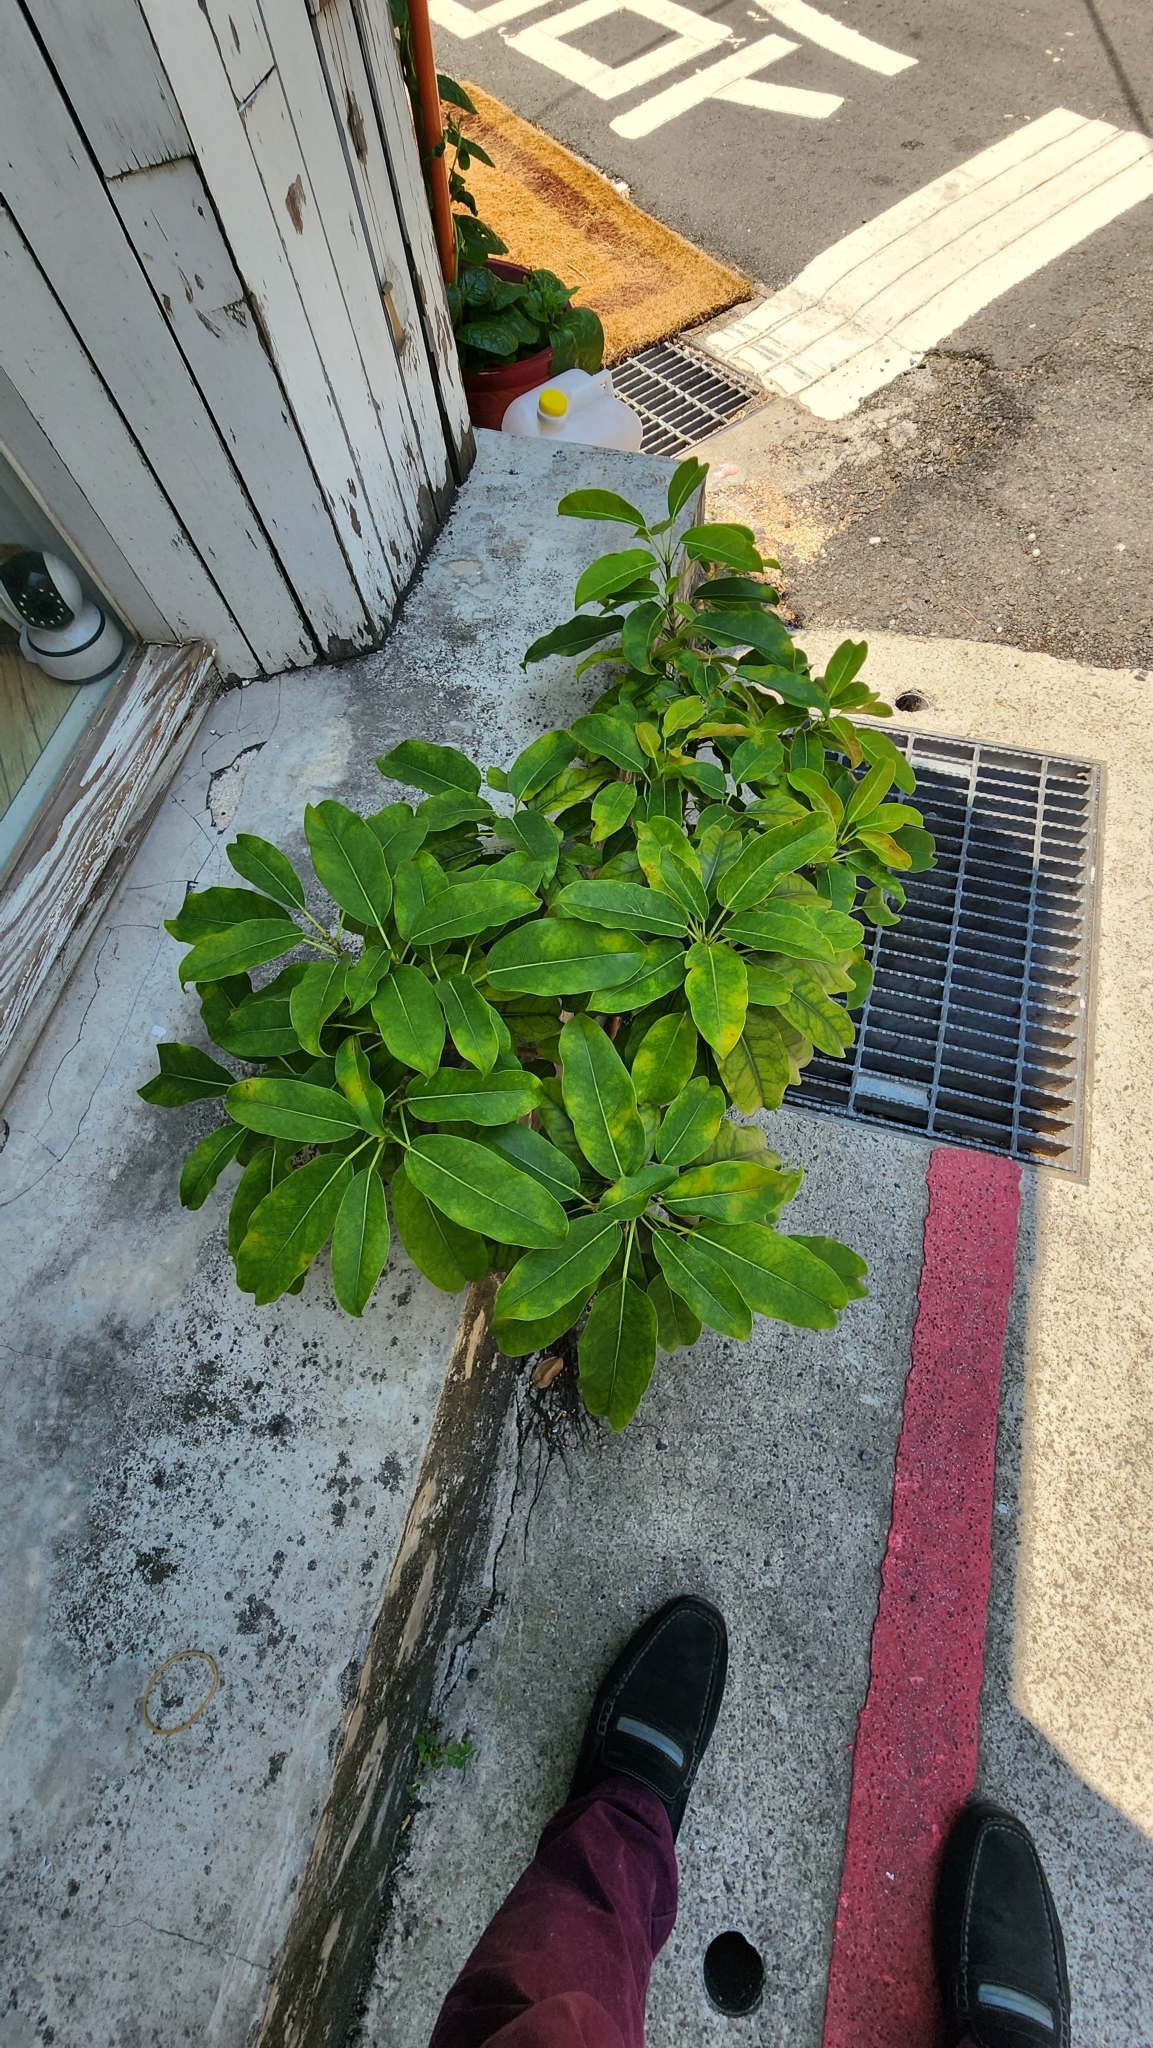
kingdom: Plantae
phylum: Tracheophyta
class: Magnoliopsida
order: Rosales
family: Moraceae
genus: Ficus
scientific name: Ficus subpisocarpa
